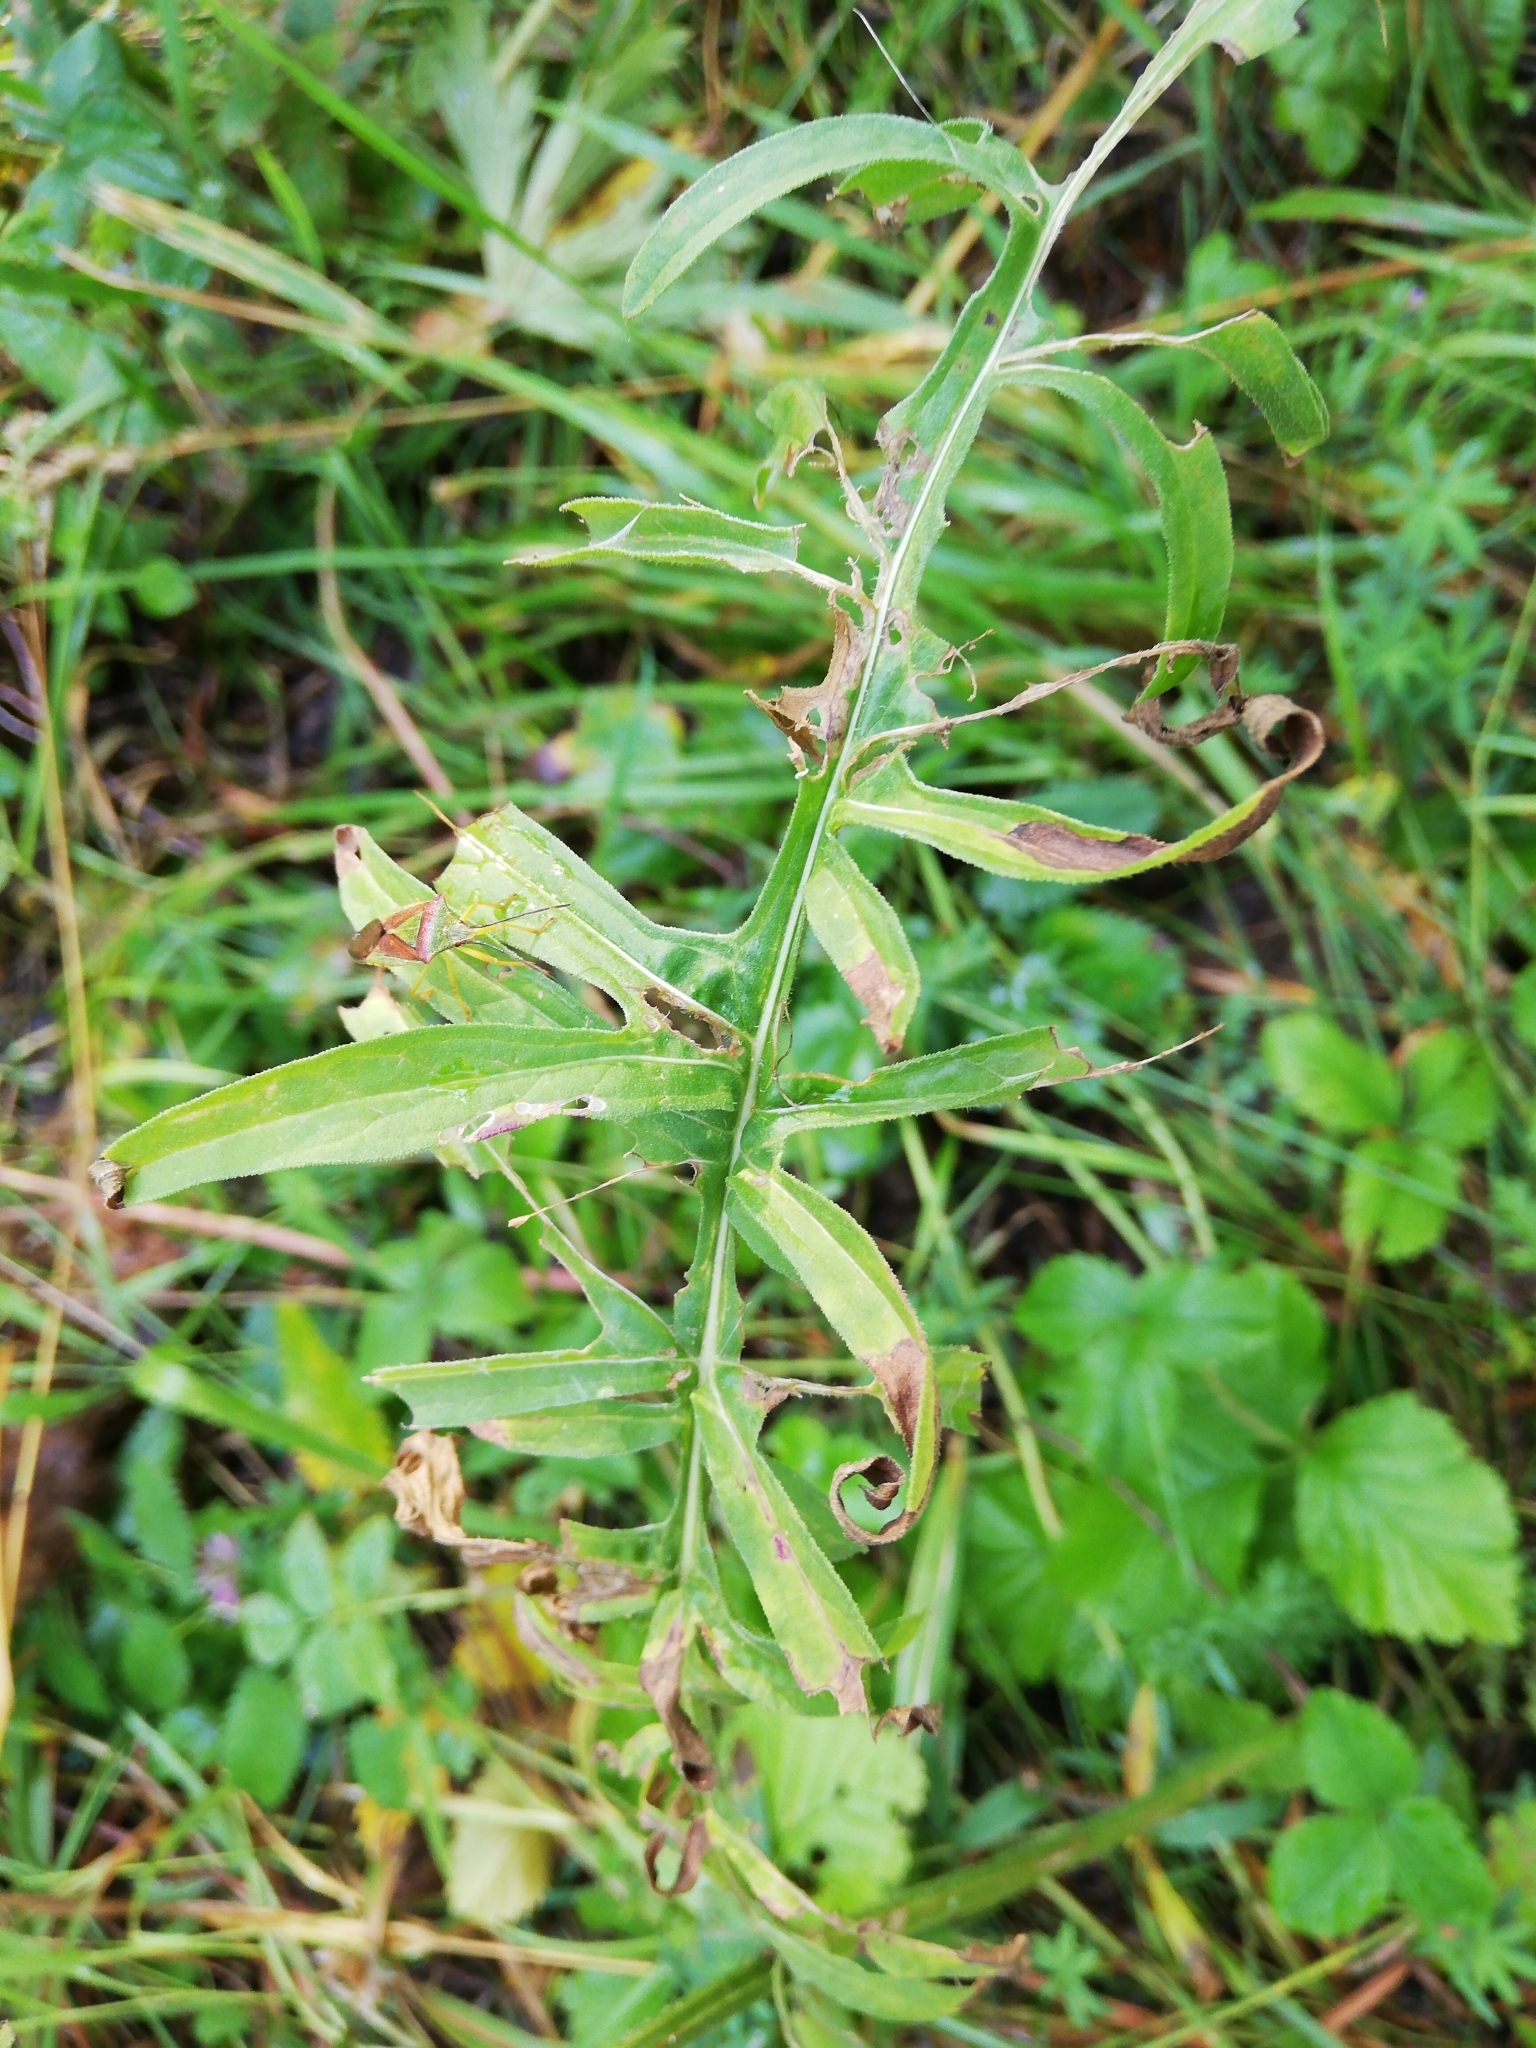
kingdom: Plantae
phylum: Tracheophyta
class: Magnoliopsida
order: Asterales
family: Asteraceae
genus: Centaurea
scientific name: Centaurea scabiosa
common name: Greater knapweed
